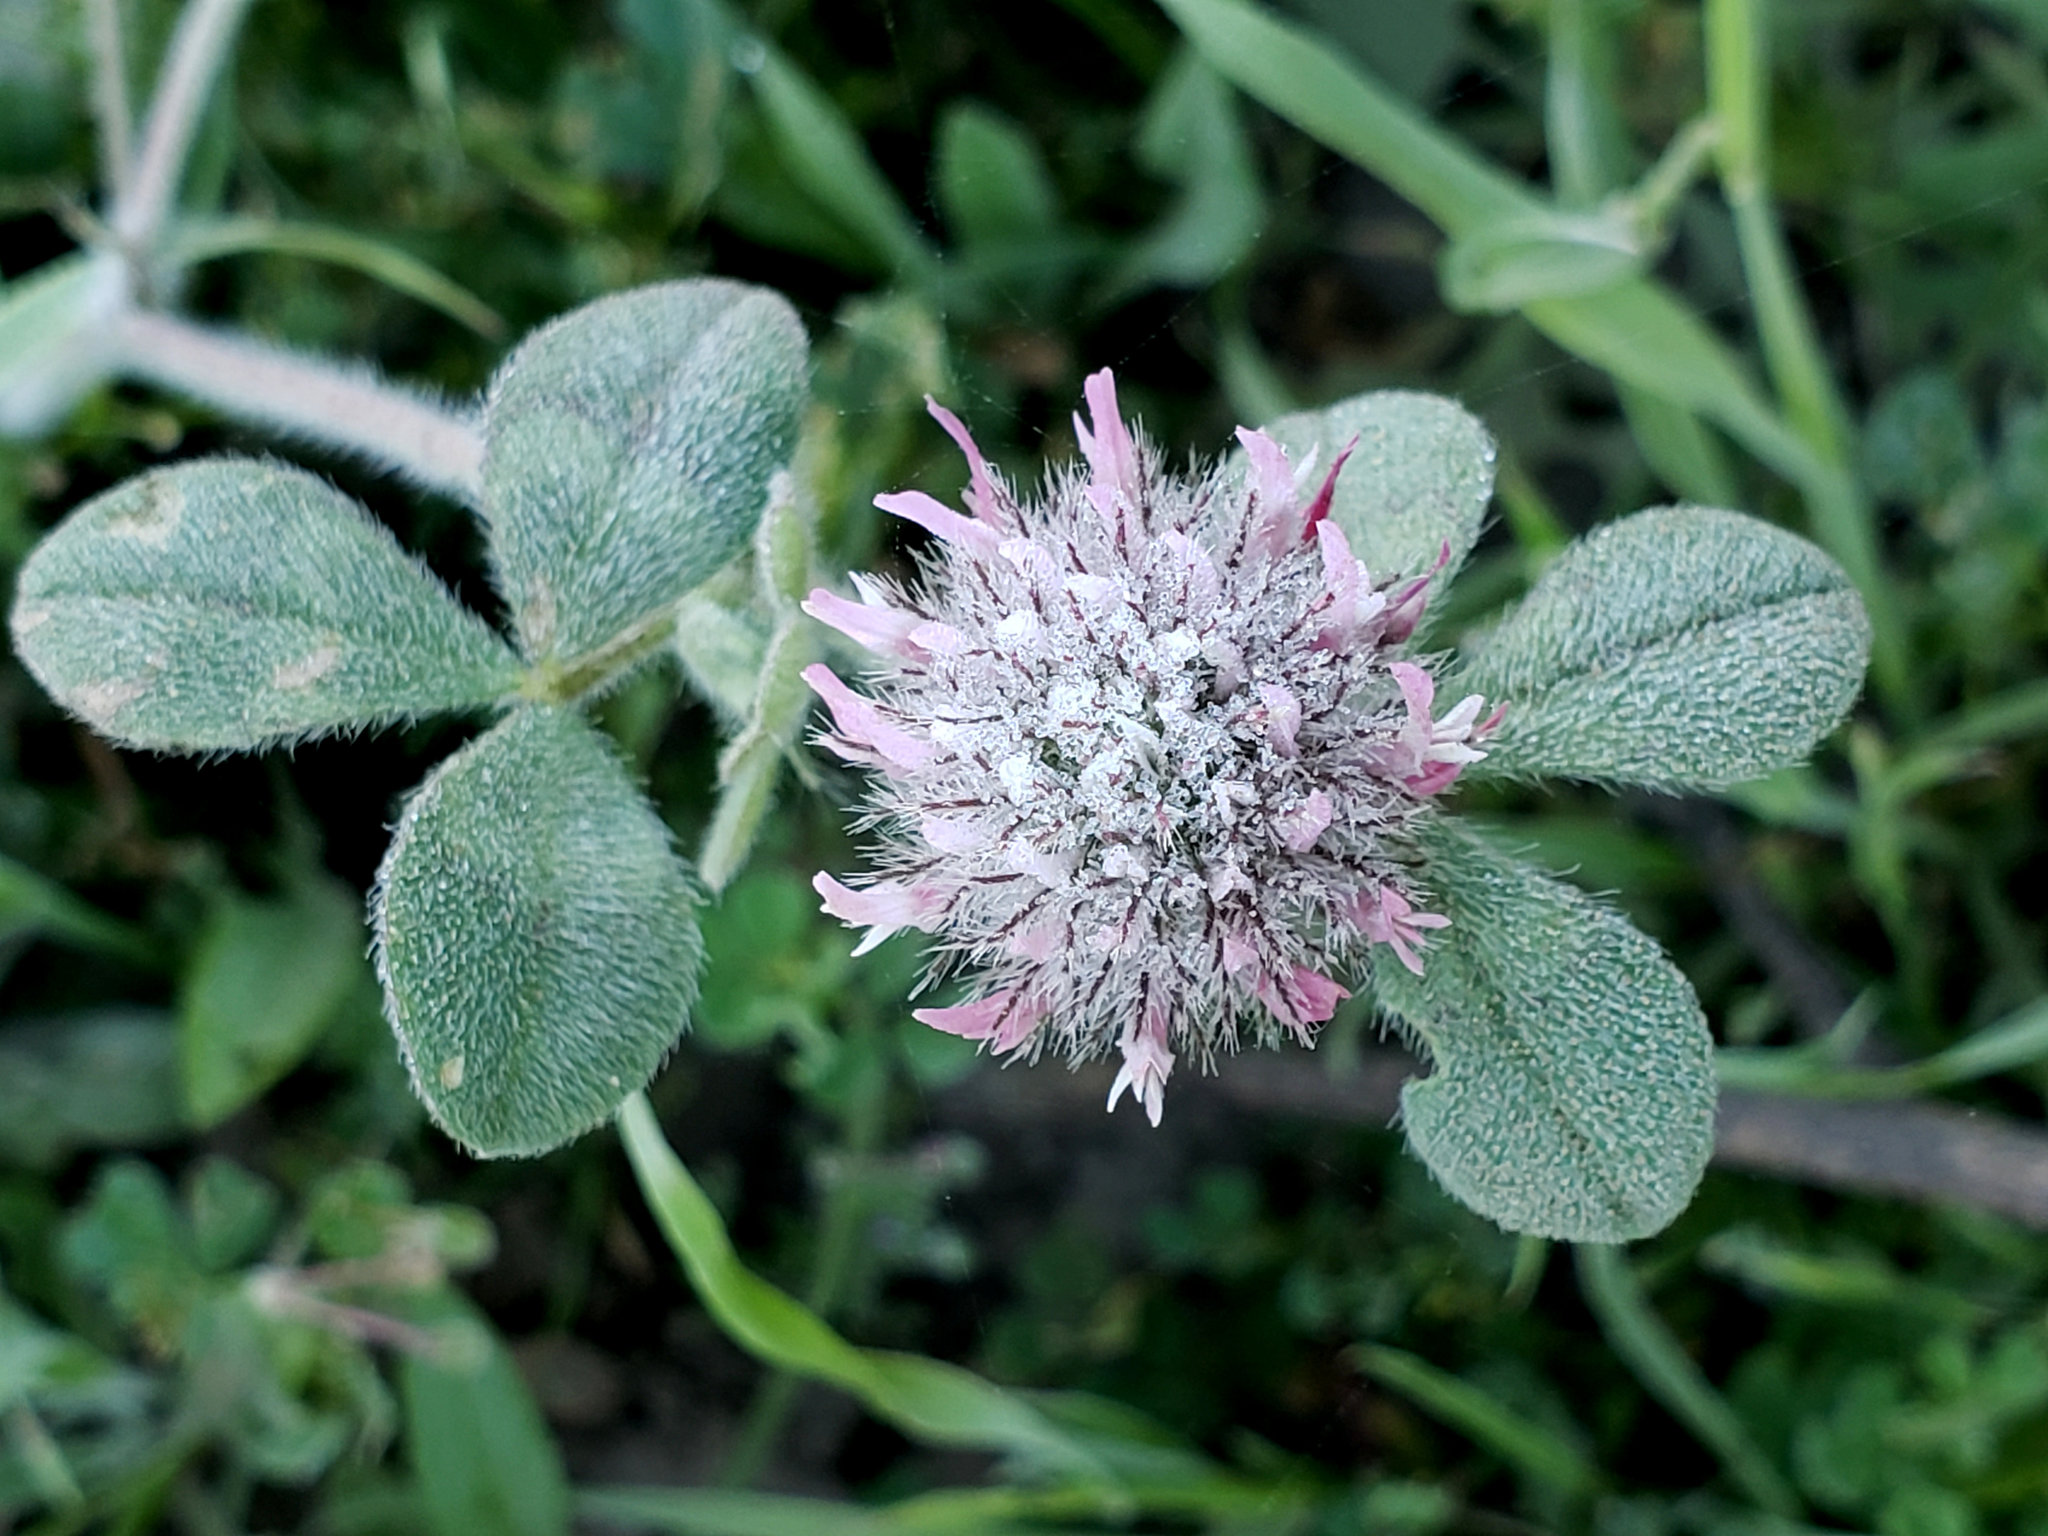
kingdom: Plantae
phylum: Tracheophyta
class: Magnoliopsida
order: Fabales
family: Fabaceae
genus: Trifolium
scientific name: Trifolium hirtum
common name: Rose clover
